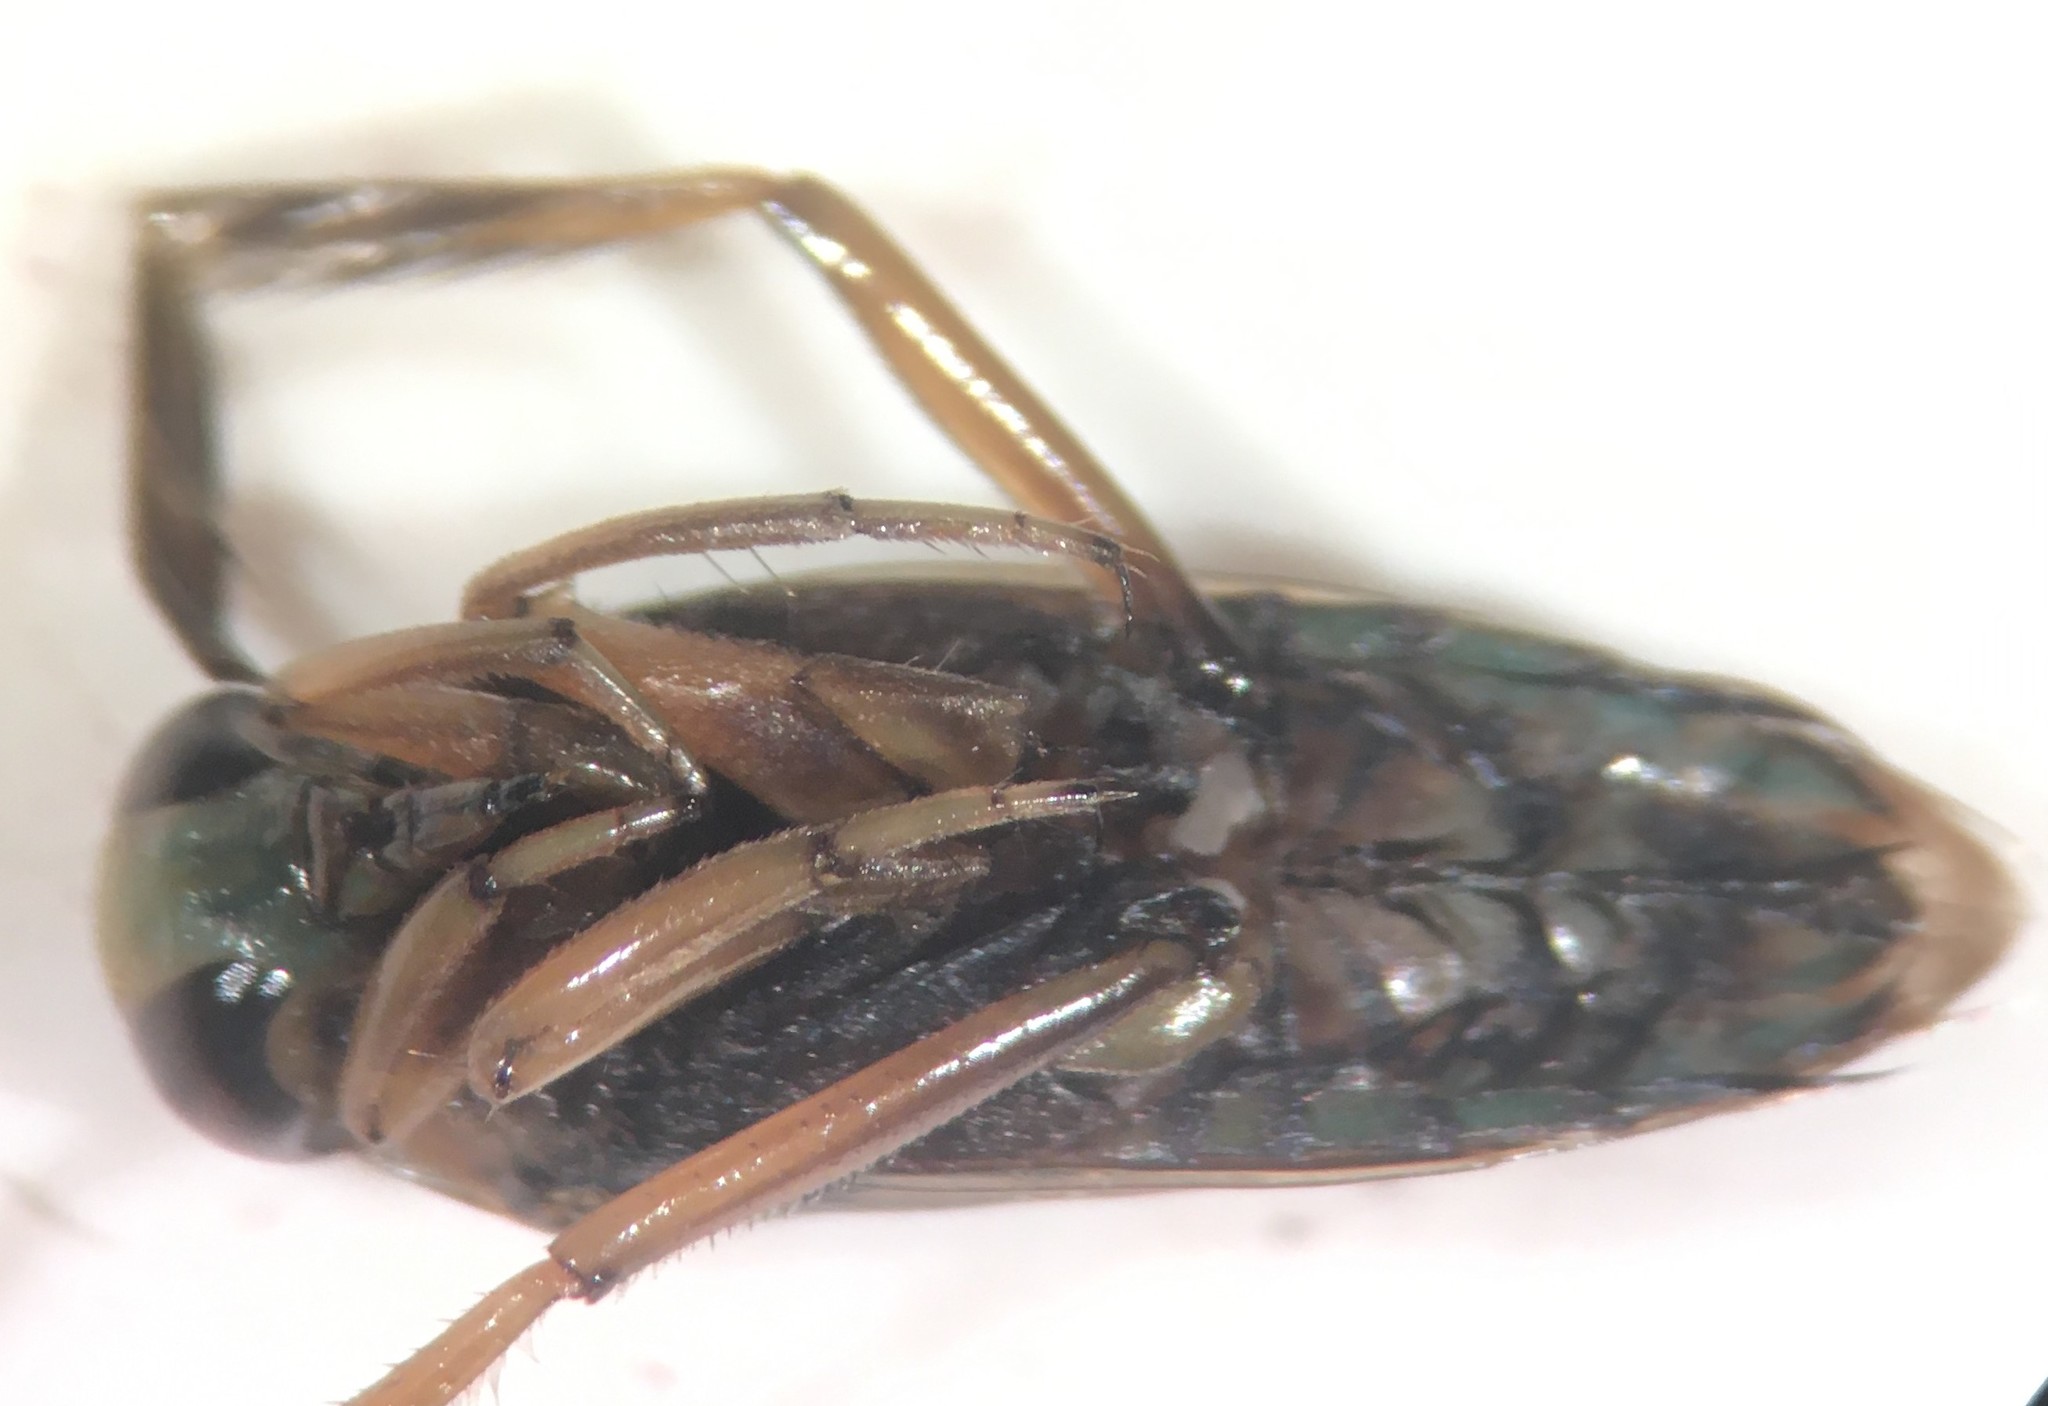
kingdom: Animalia
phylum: Arthropoda
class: Insecta
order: Hemiptera
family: Notonectidae
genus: Notonecta
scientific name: Notonecta raleighi
